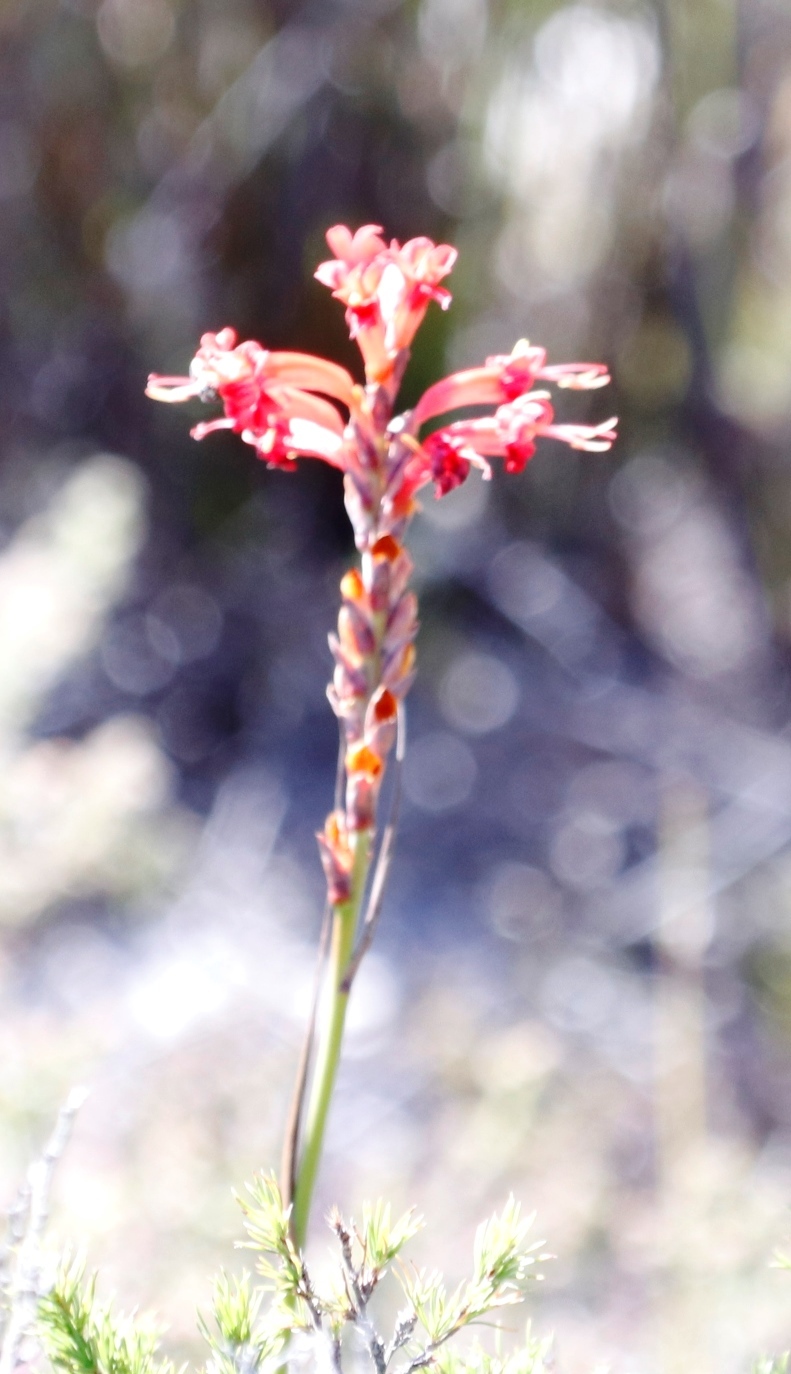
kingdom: Plantae
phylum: Tracheophyta
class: Liliopsida
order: Asparagales
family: Iridaceae
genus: Tritoniopsis
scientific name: Tritoniopsis triticea
